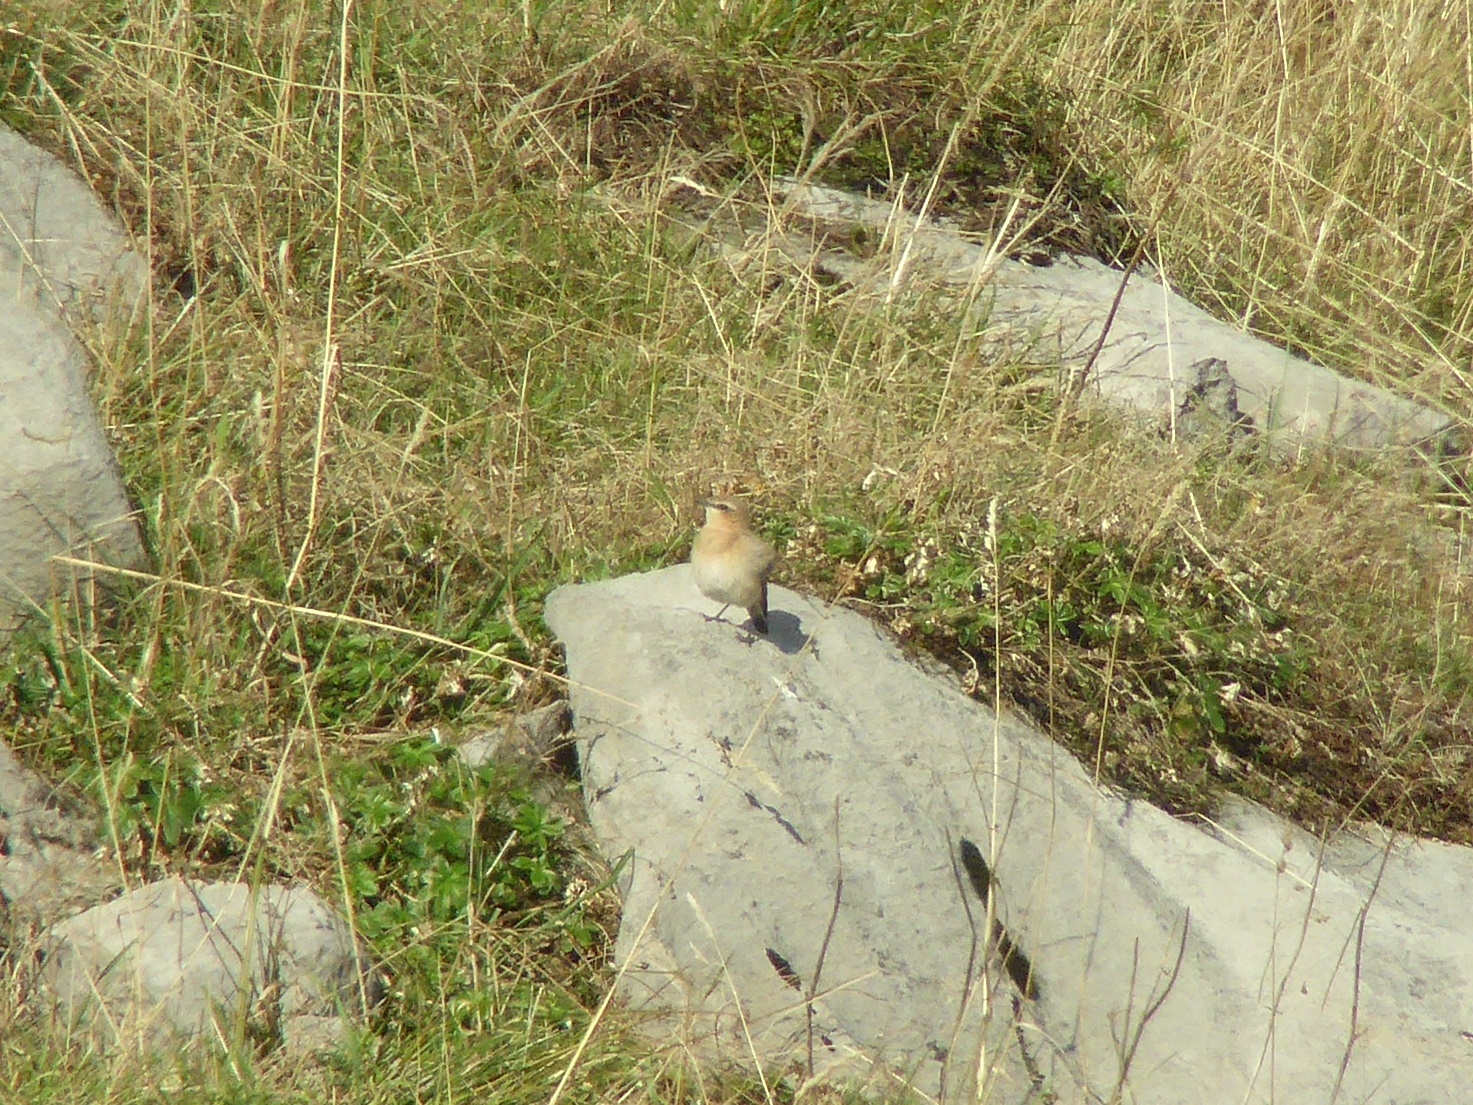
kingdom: Animalia
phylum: Chordata
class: Aves
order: Passeriformes
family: Muscicapidae
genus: Oenanthe
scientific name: Oenanthe oenanthe
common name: Northern wheatear
